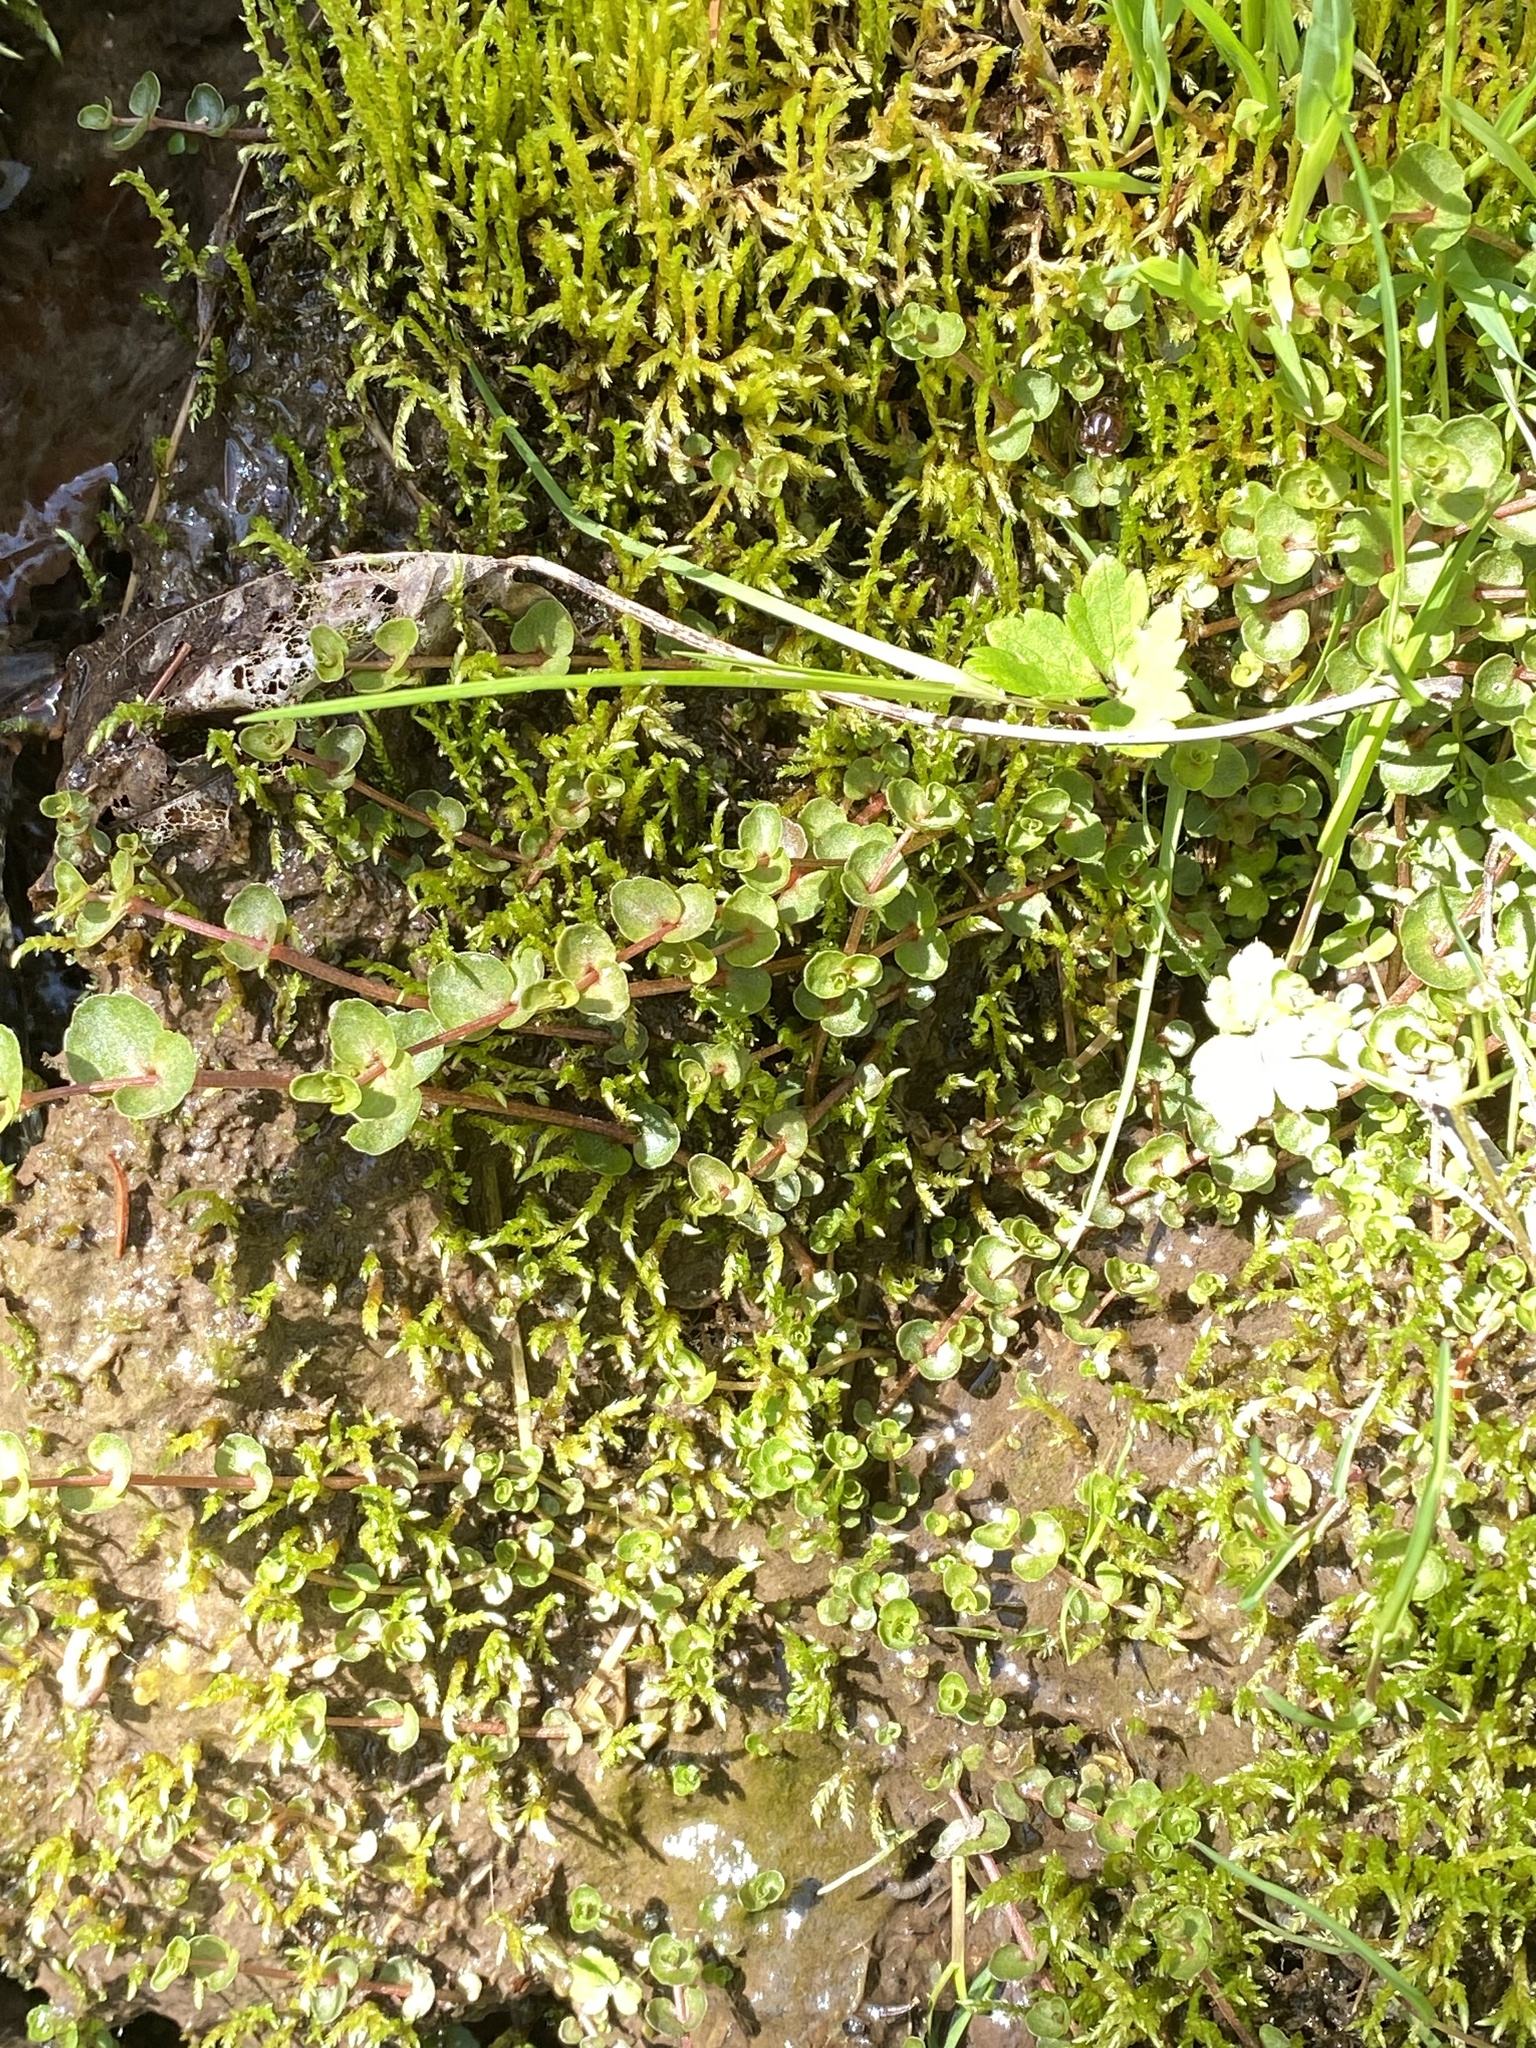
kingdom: Plantae
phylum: Tracheophyta
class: Magnoliopsida
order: Saxifragales
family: Saxifragaceae
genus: Chrysosplenium
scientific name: Chrysosplenium americanum
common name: American golden-saxifrage
